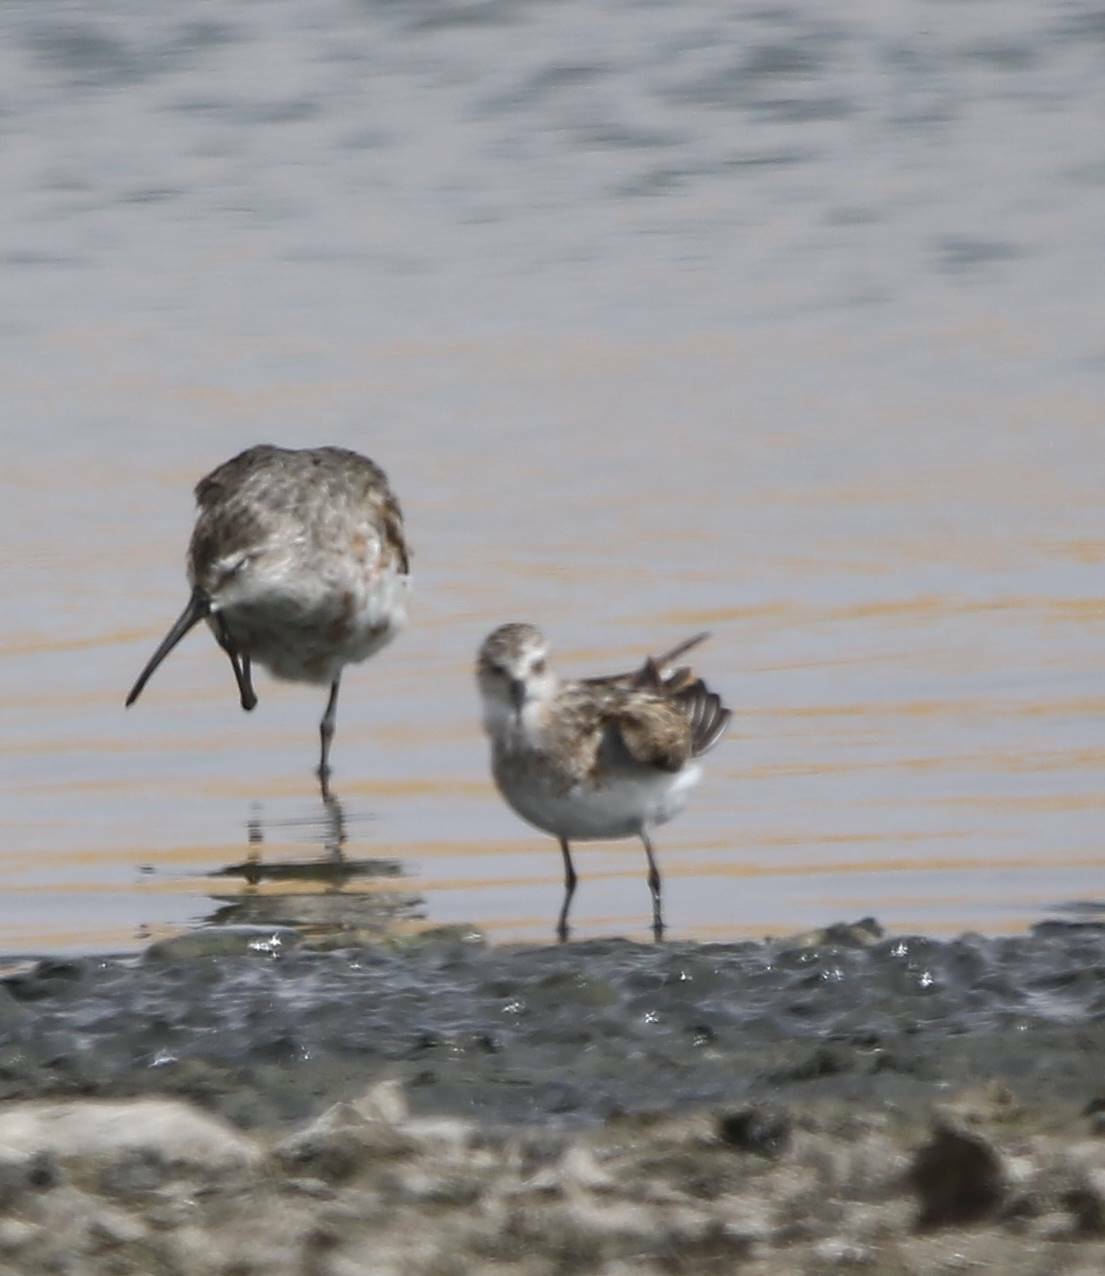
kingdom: Animalia
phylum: Chordata
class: Aves
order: Charadriiformes
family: Scolopacidae
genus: Calidris
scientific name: Calidris ferruginea
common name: Curlew sandpiper
